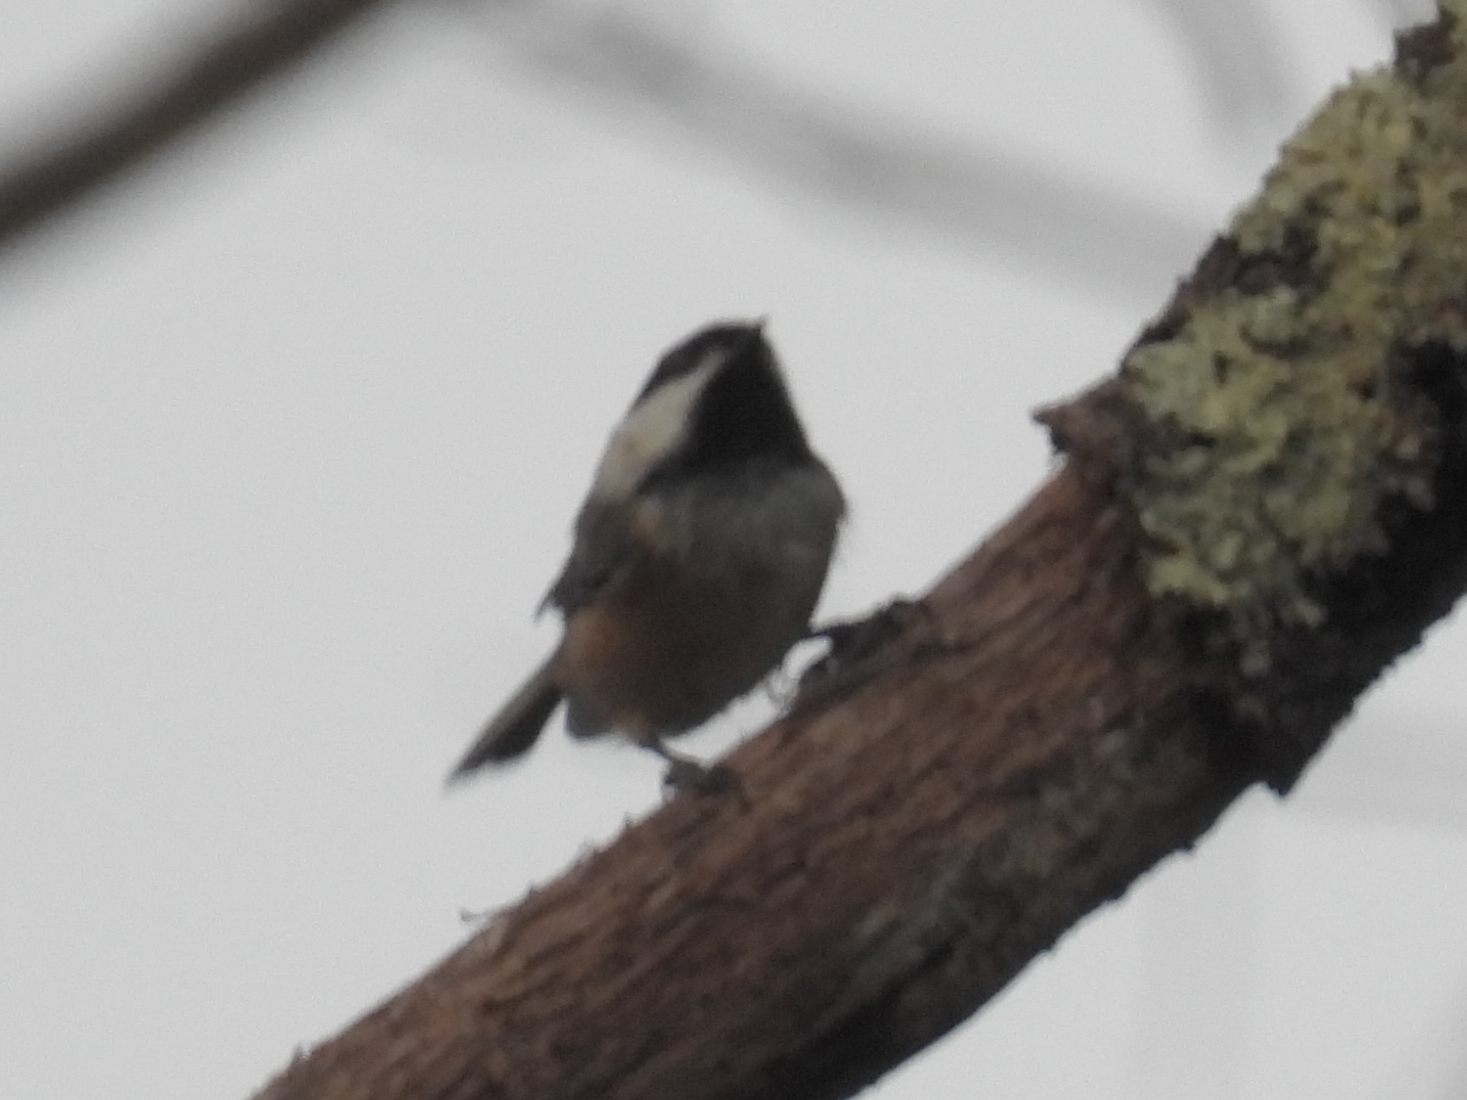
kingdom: Animalia
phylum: Chordata
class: Aves
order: Passeriformes
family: Paridae
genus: Poecile
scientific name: Poecile atricapillus
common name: Black-capped chickadee
